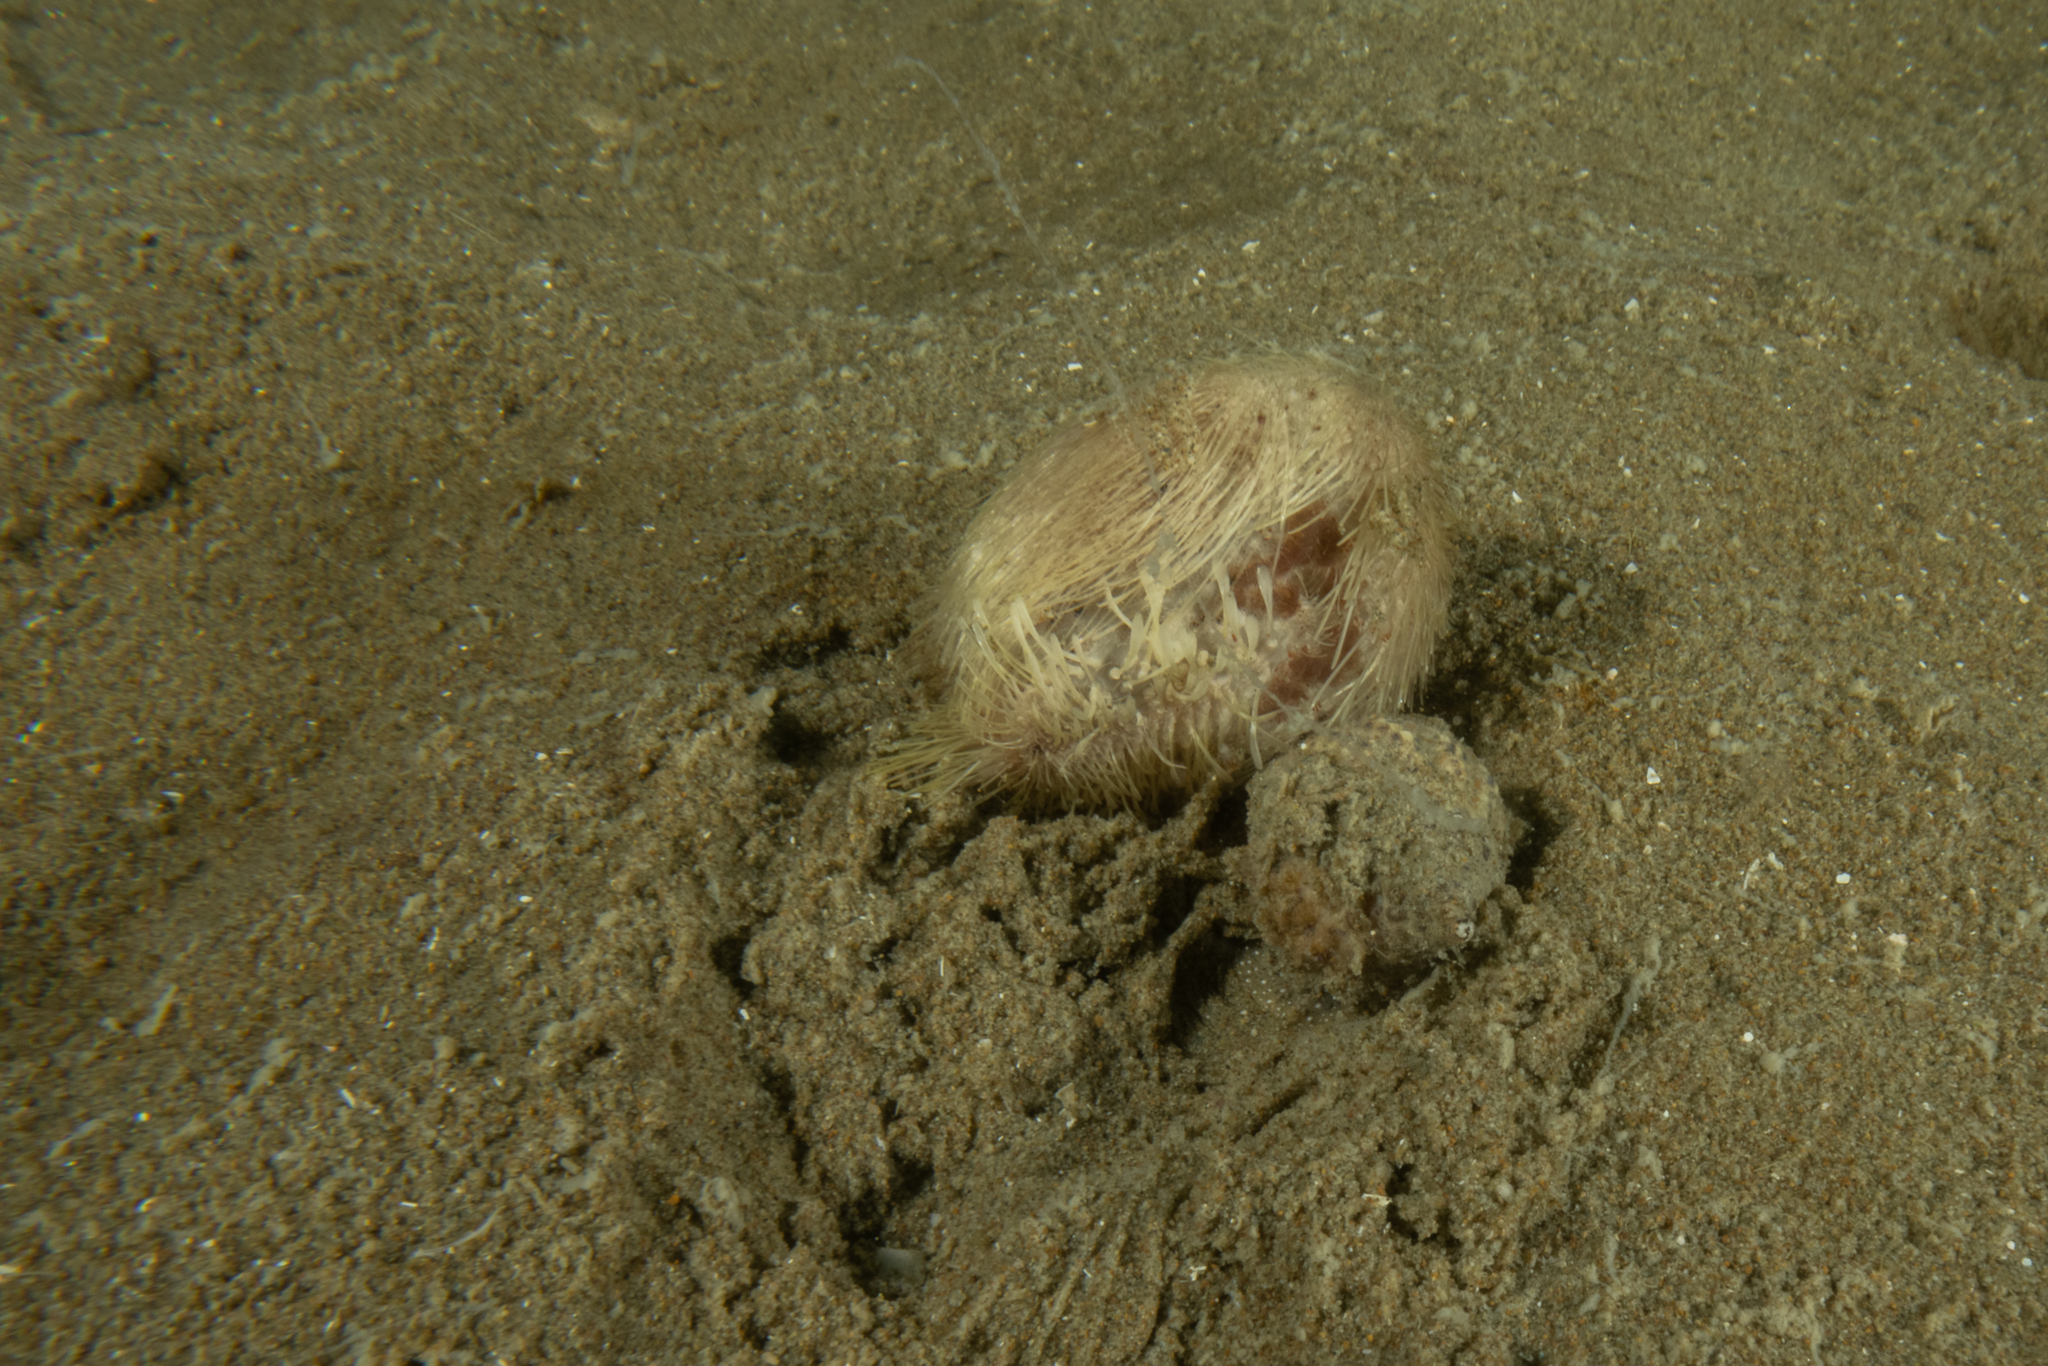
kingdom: Animalia
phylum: Echinodermata
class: Echinoidea
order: Spatangoida
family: Loveniidae
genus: Echinocardium
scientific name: Echinocardium cordatum
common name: Heart-urchin
